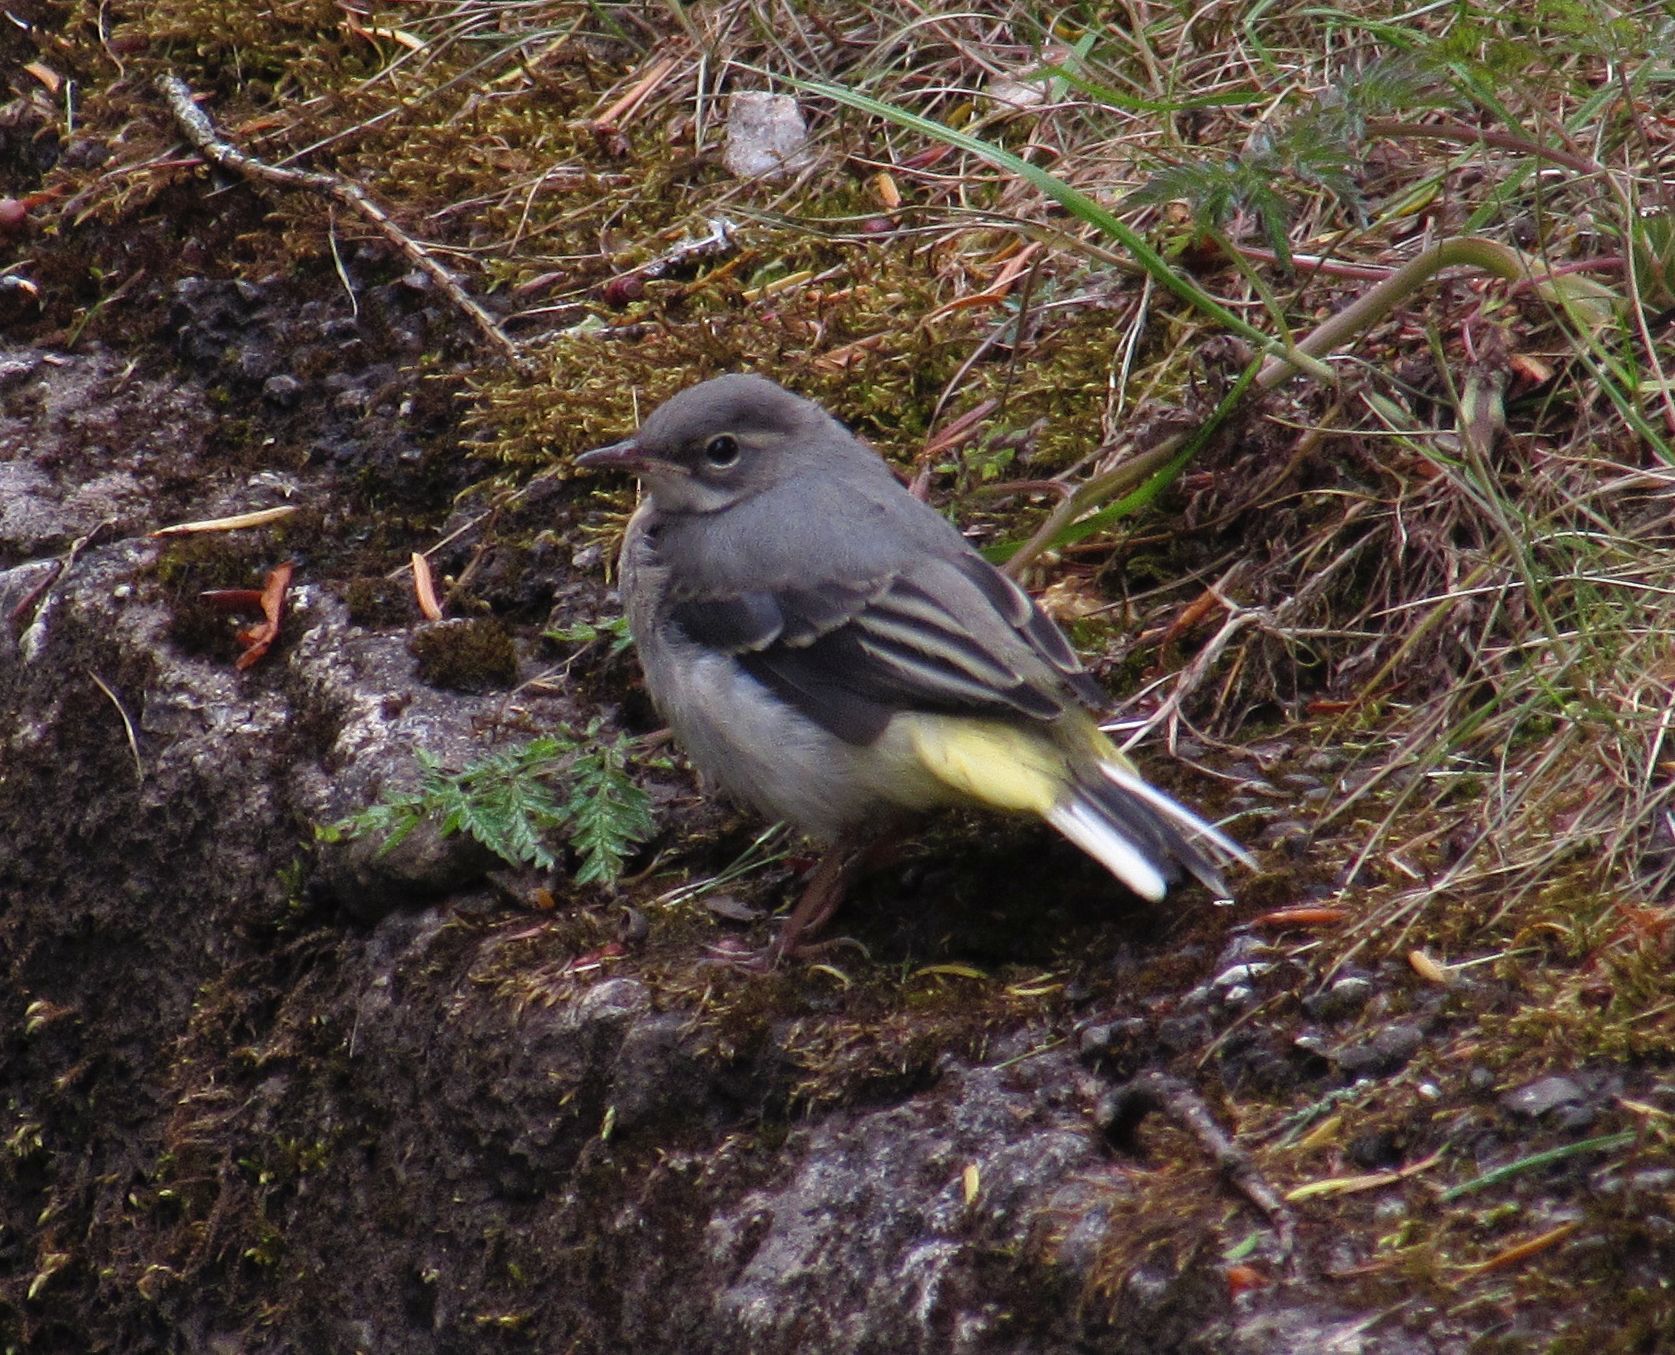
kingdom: Animalia
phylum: Chordata
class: Aves
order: Passeriformes
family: Motacillidae
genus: Motacilla
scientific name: Motacilla cinerea
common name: Grey wagtail
